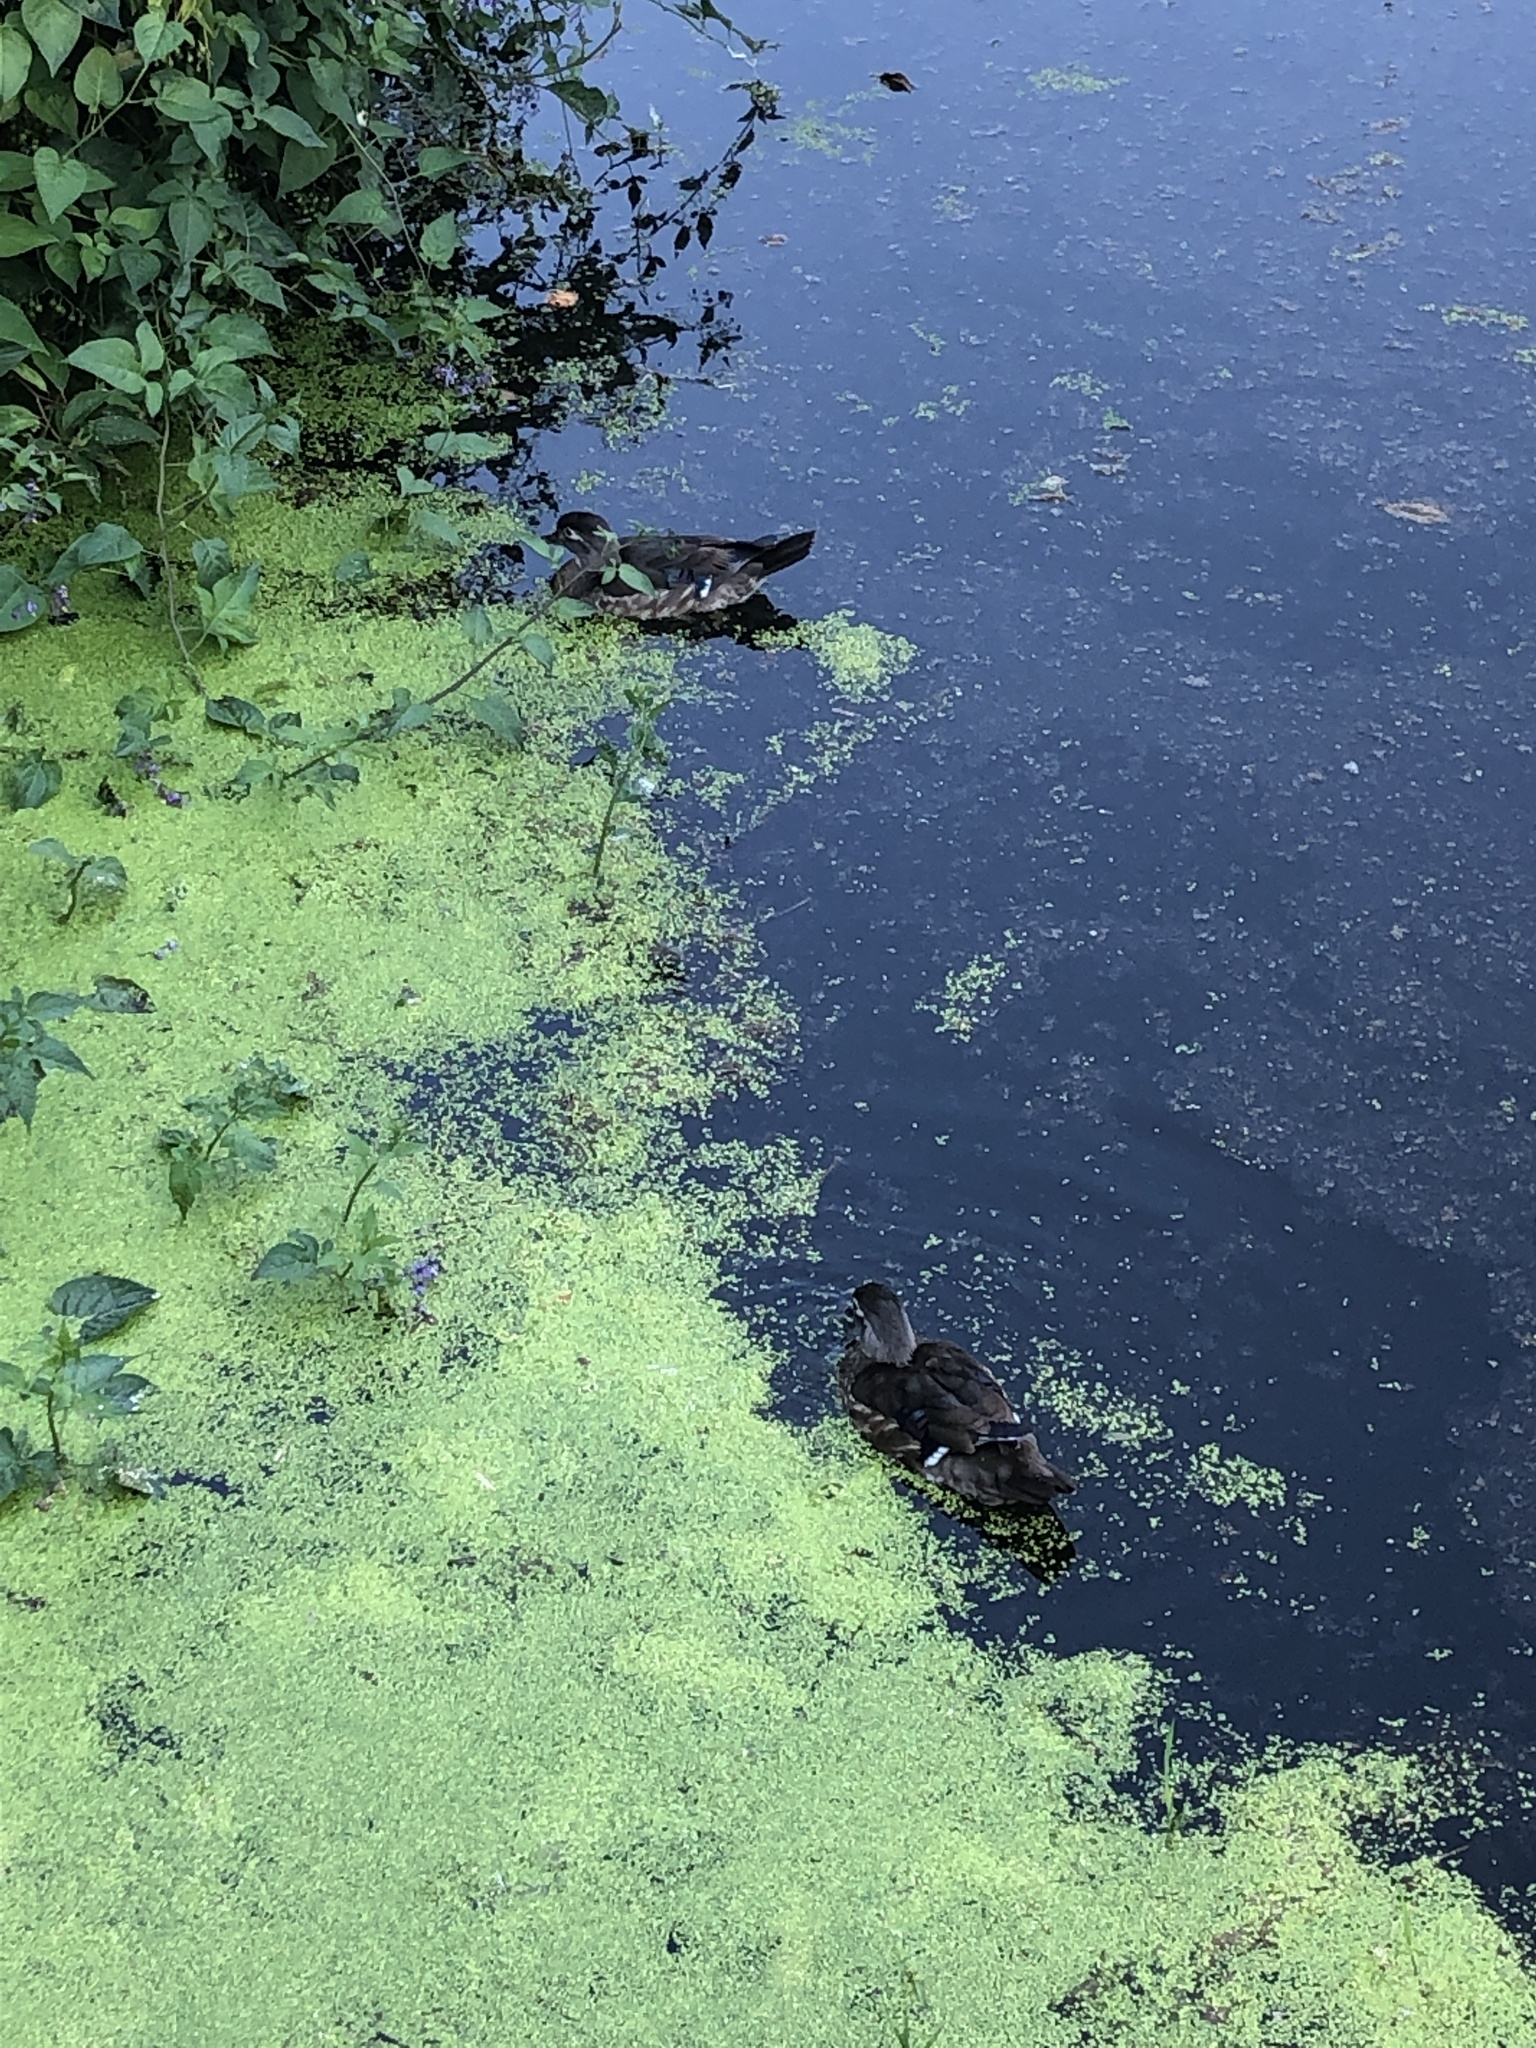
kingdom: Animalia
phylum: Chordata
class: Aves
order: Anseriformes
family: Anatidae
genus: Aix
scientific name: Aix sponsa
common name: Wood duck
